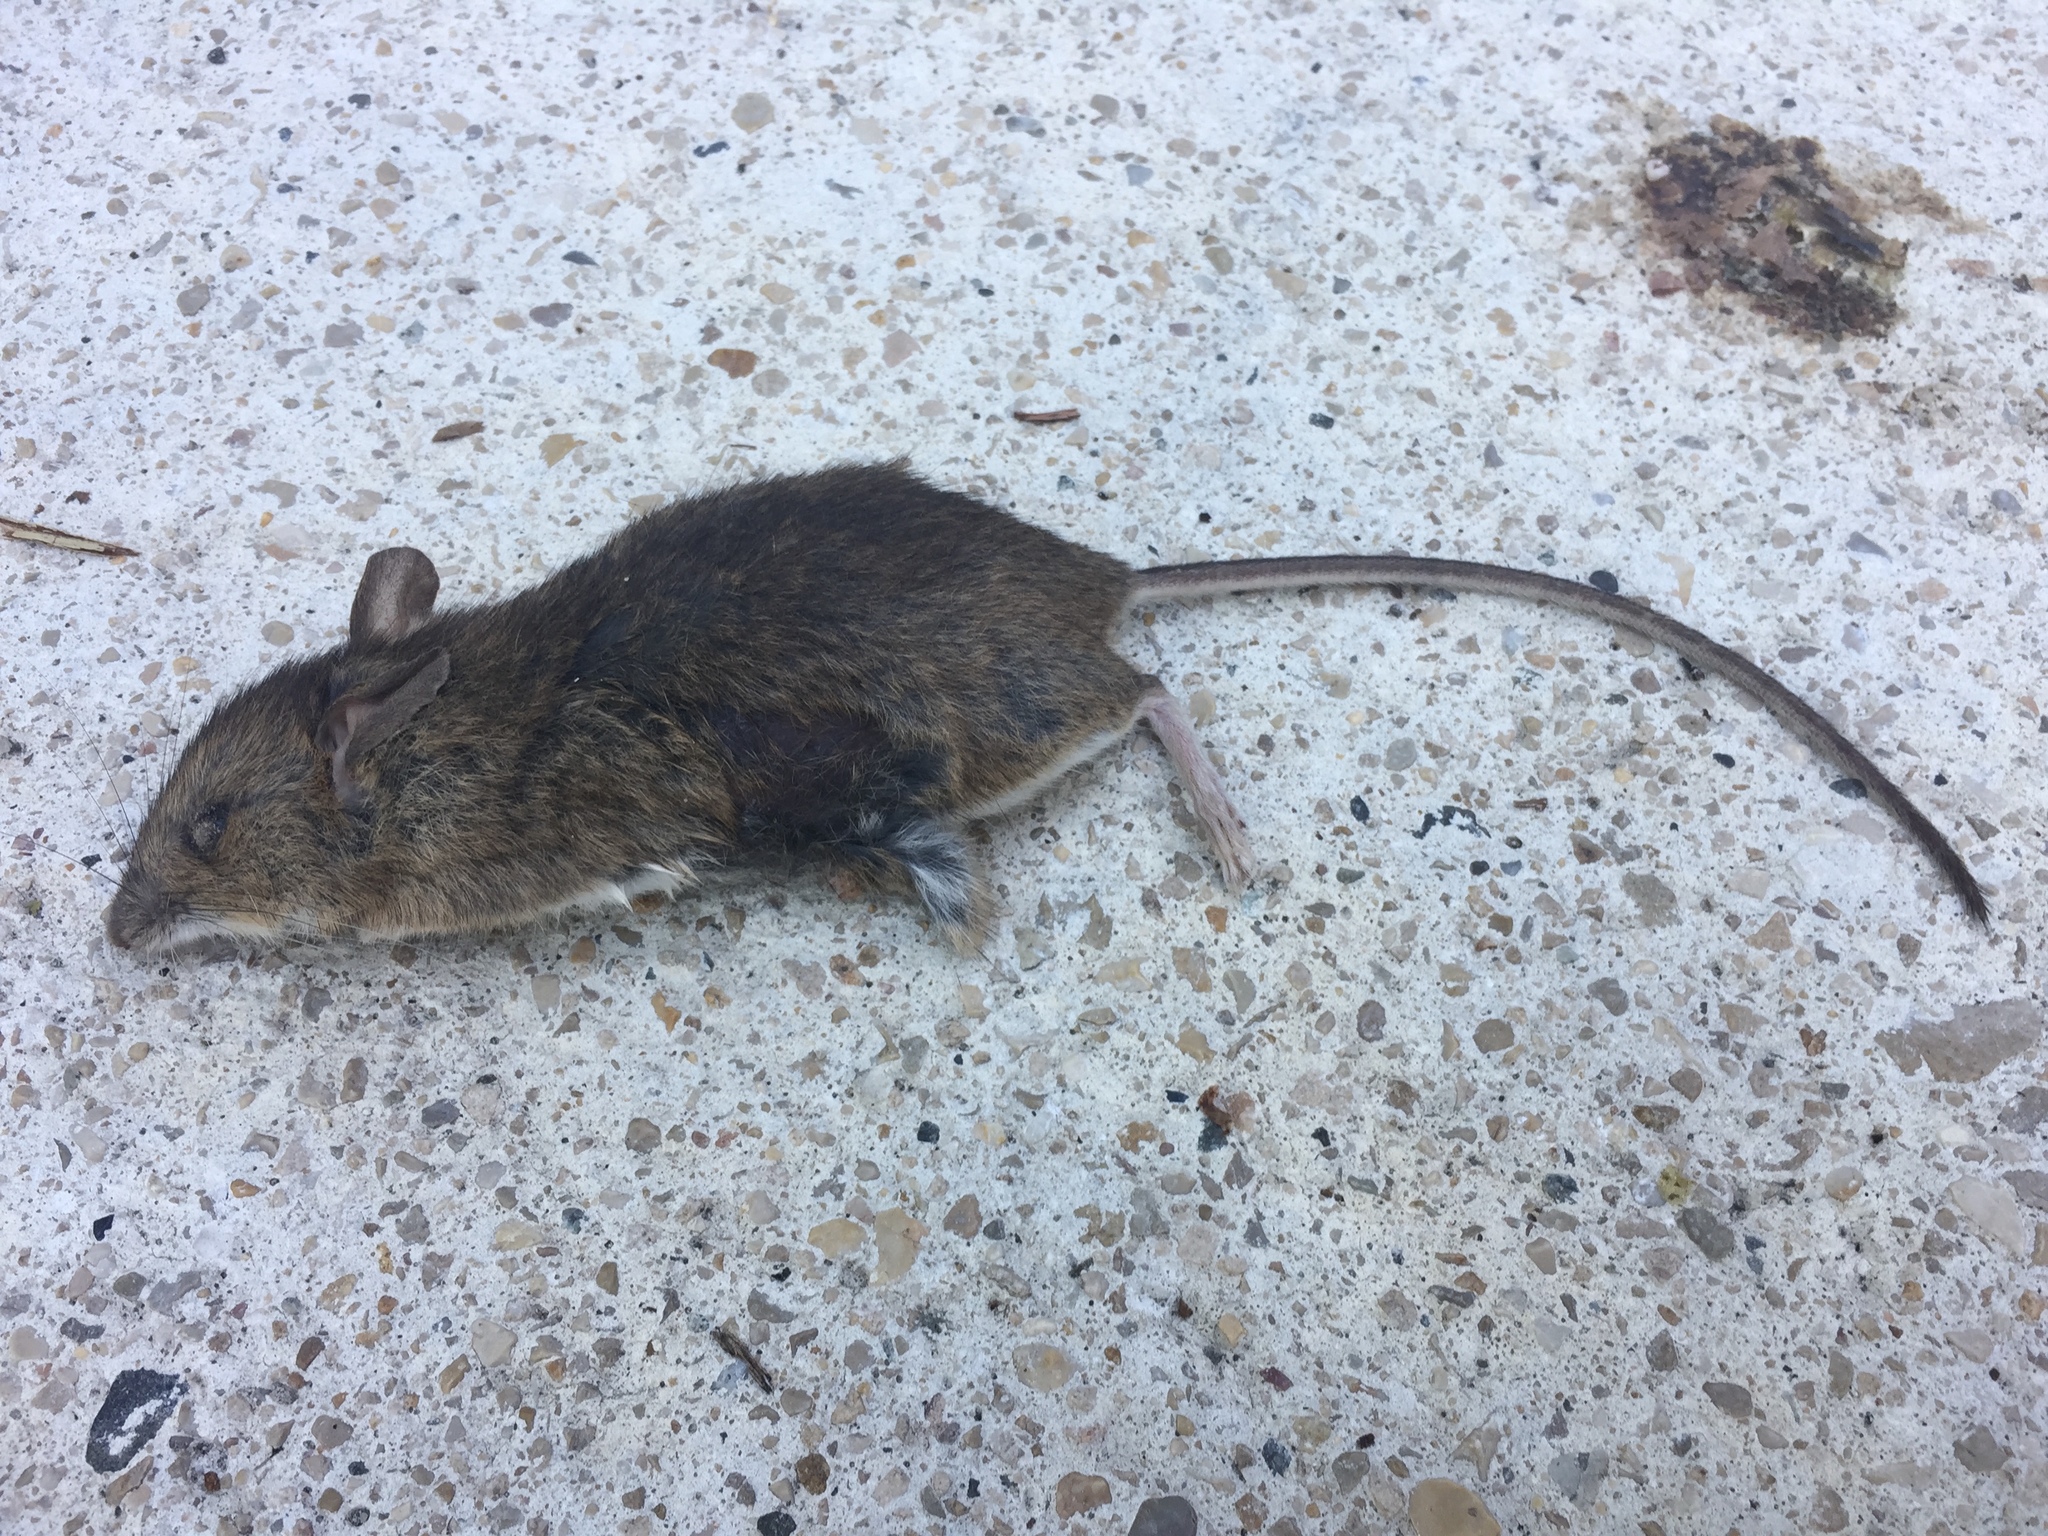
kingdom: Animalia
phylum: Chordata
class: Mammalia
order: Rodentia
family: Muridae
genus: Mus
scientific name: Mus musculus
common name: House mouse
